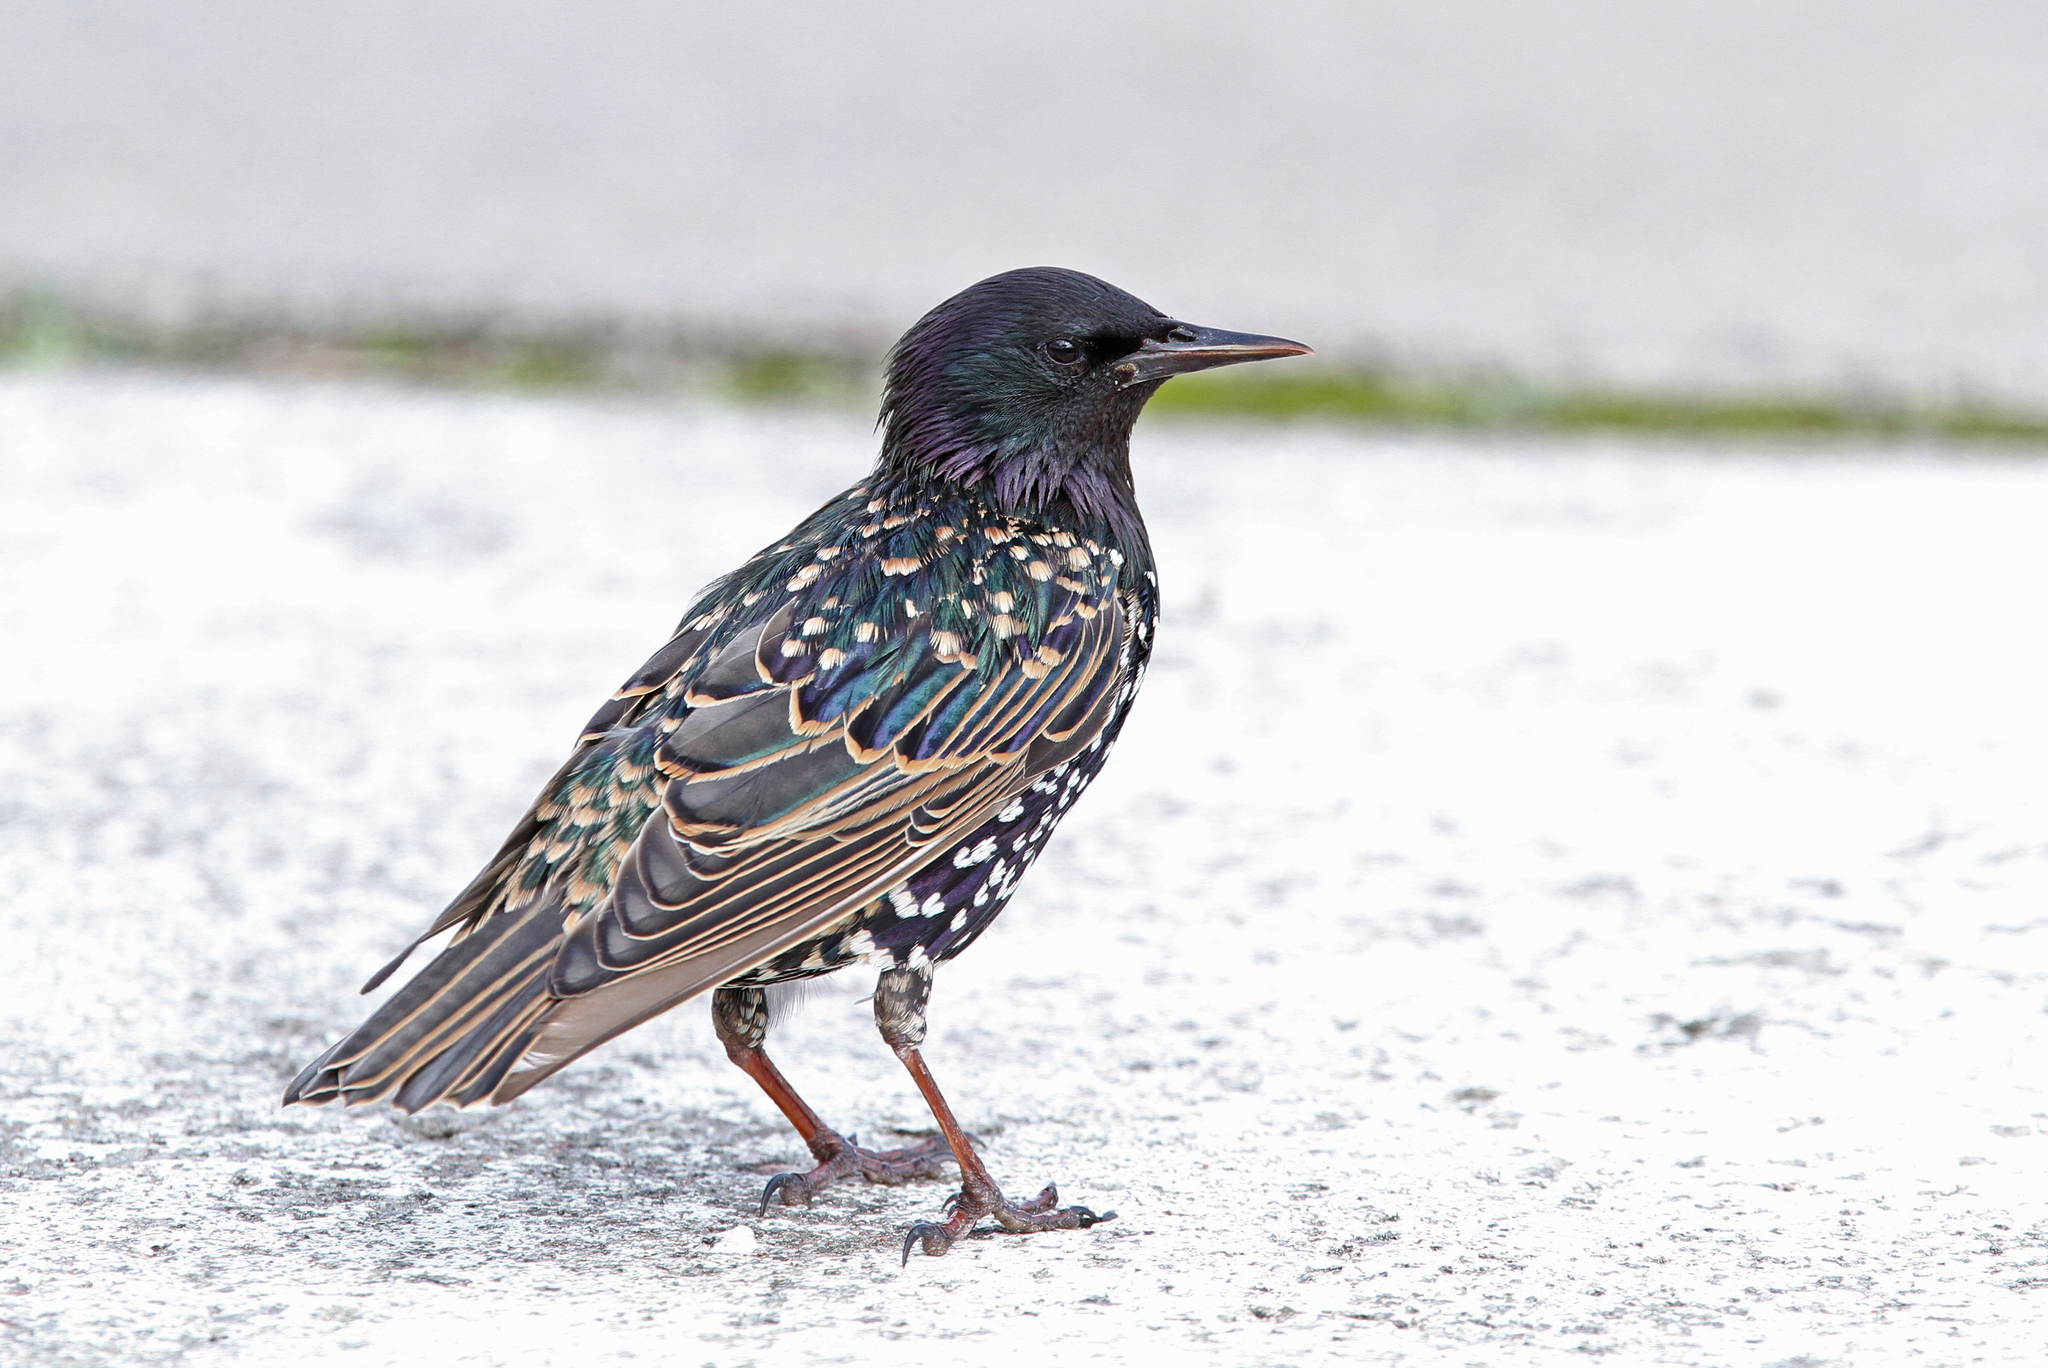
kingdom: Animalia
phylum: Chordata
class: Aves
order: Passeriformes
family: Sturnidae
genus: Sturnus
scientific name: Sturnus vulgaris
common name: Common starling
